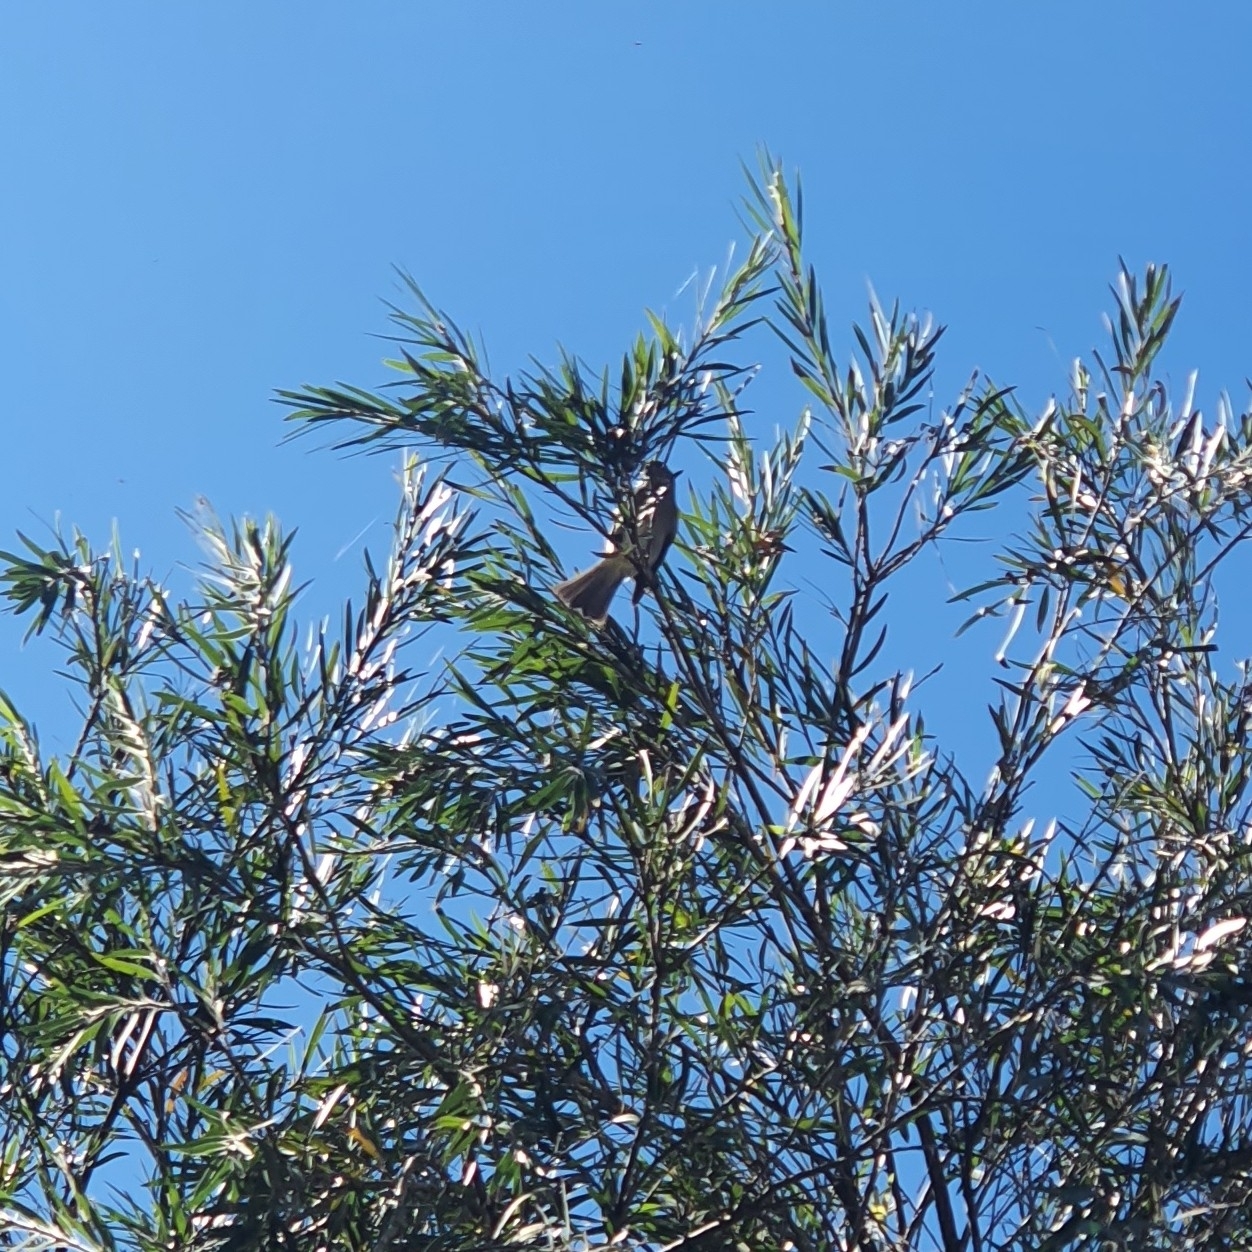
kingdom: Animalia
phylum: Chordata
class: Aves
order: Passeriformes
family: Pachycephalidae
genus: Pachycephala
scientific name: Pachycephala pectoralis
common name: Australian golden whistler
